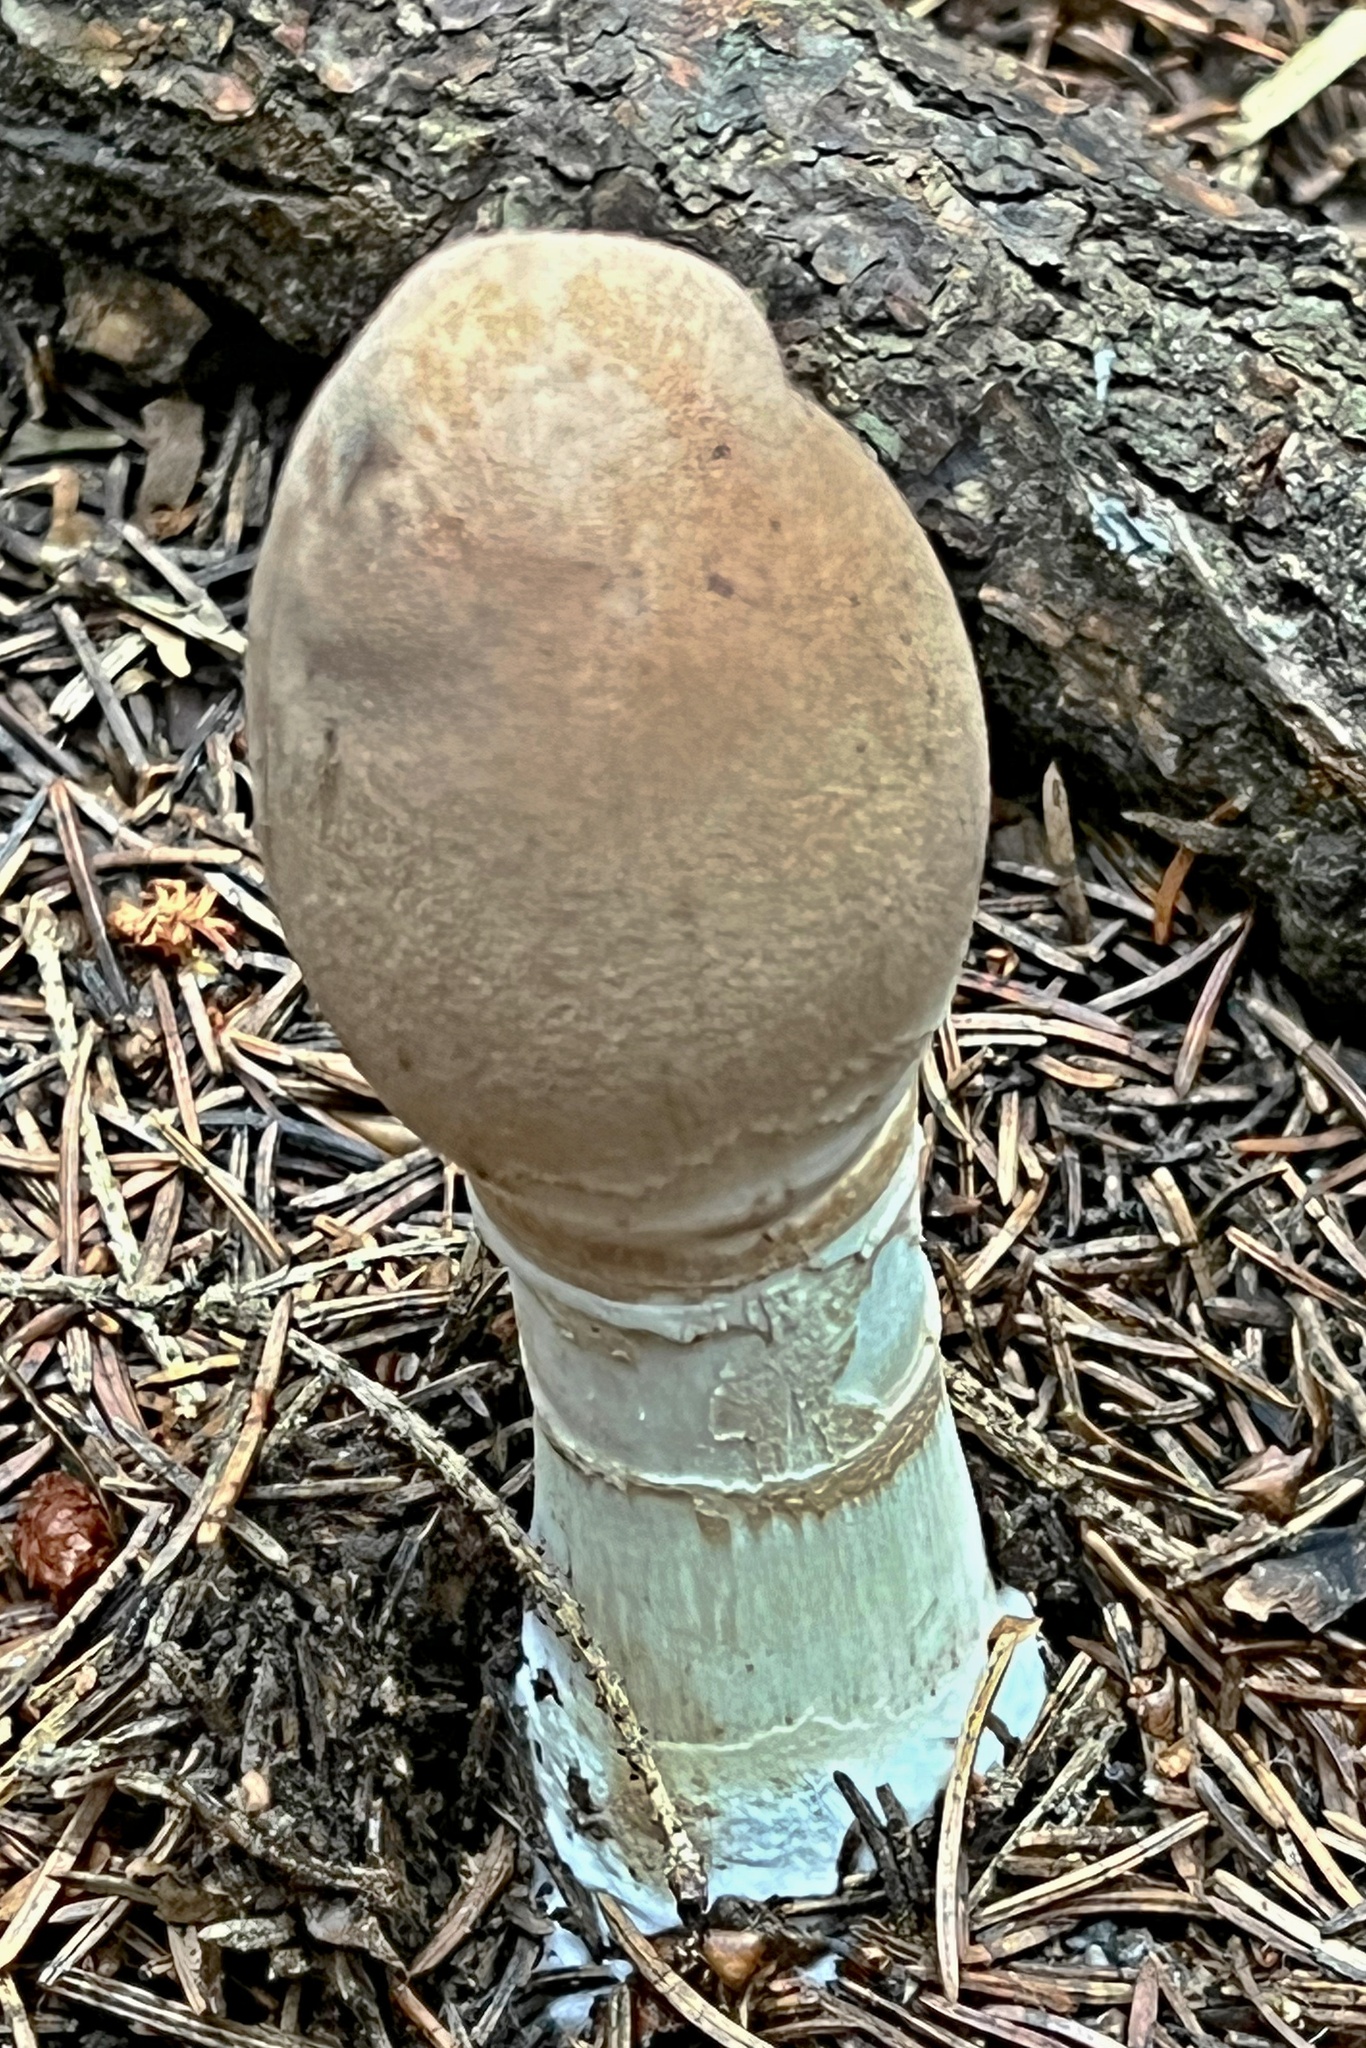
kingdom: Fungi
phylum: Basidiomycota
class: Agaricomycetes
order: Agaricales
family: Agaricaceae
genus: Macrolepiota
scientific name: Macrolepiota procera
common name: Parasol
